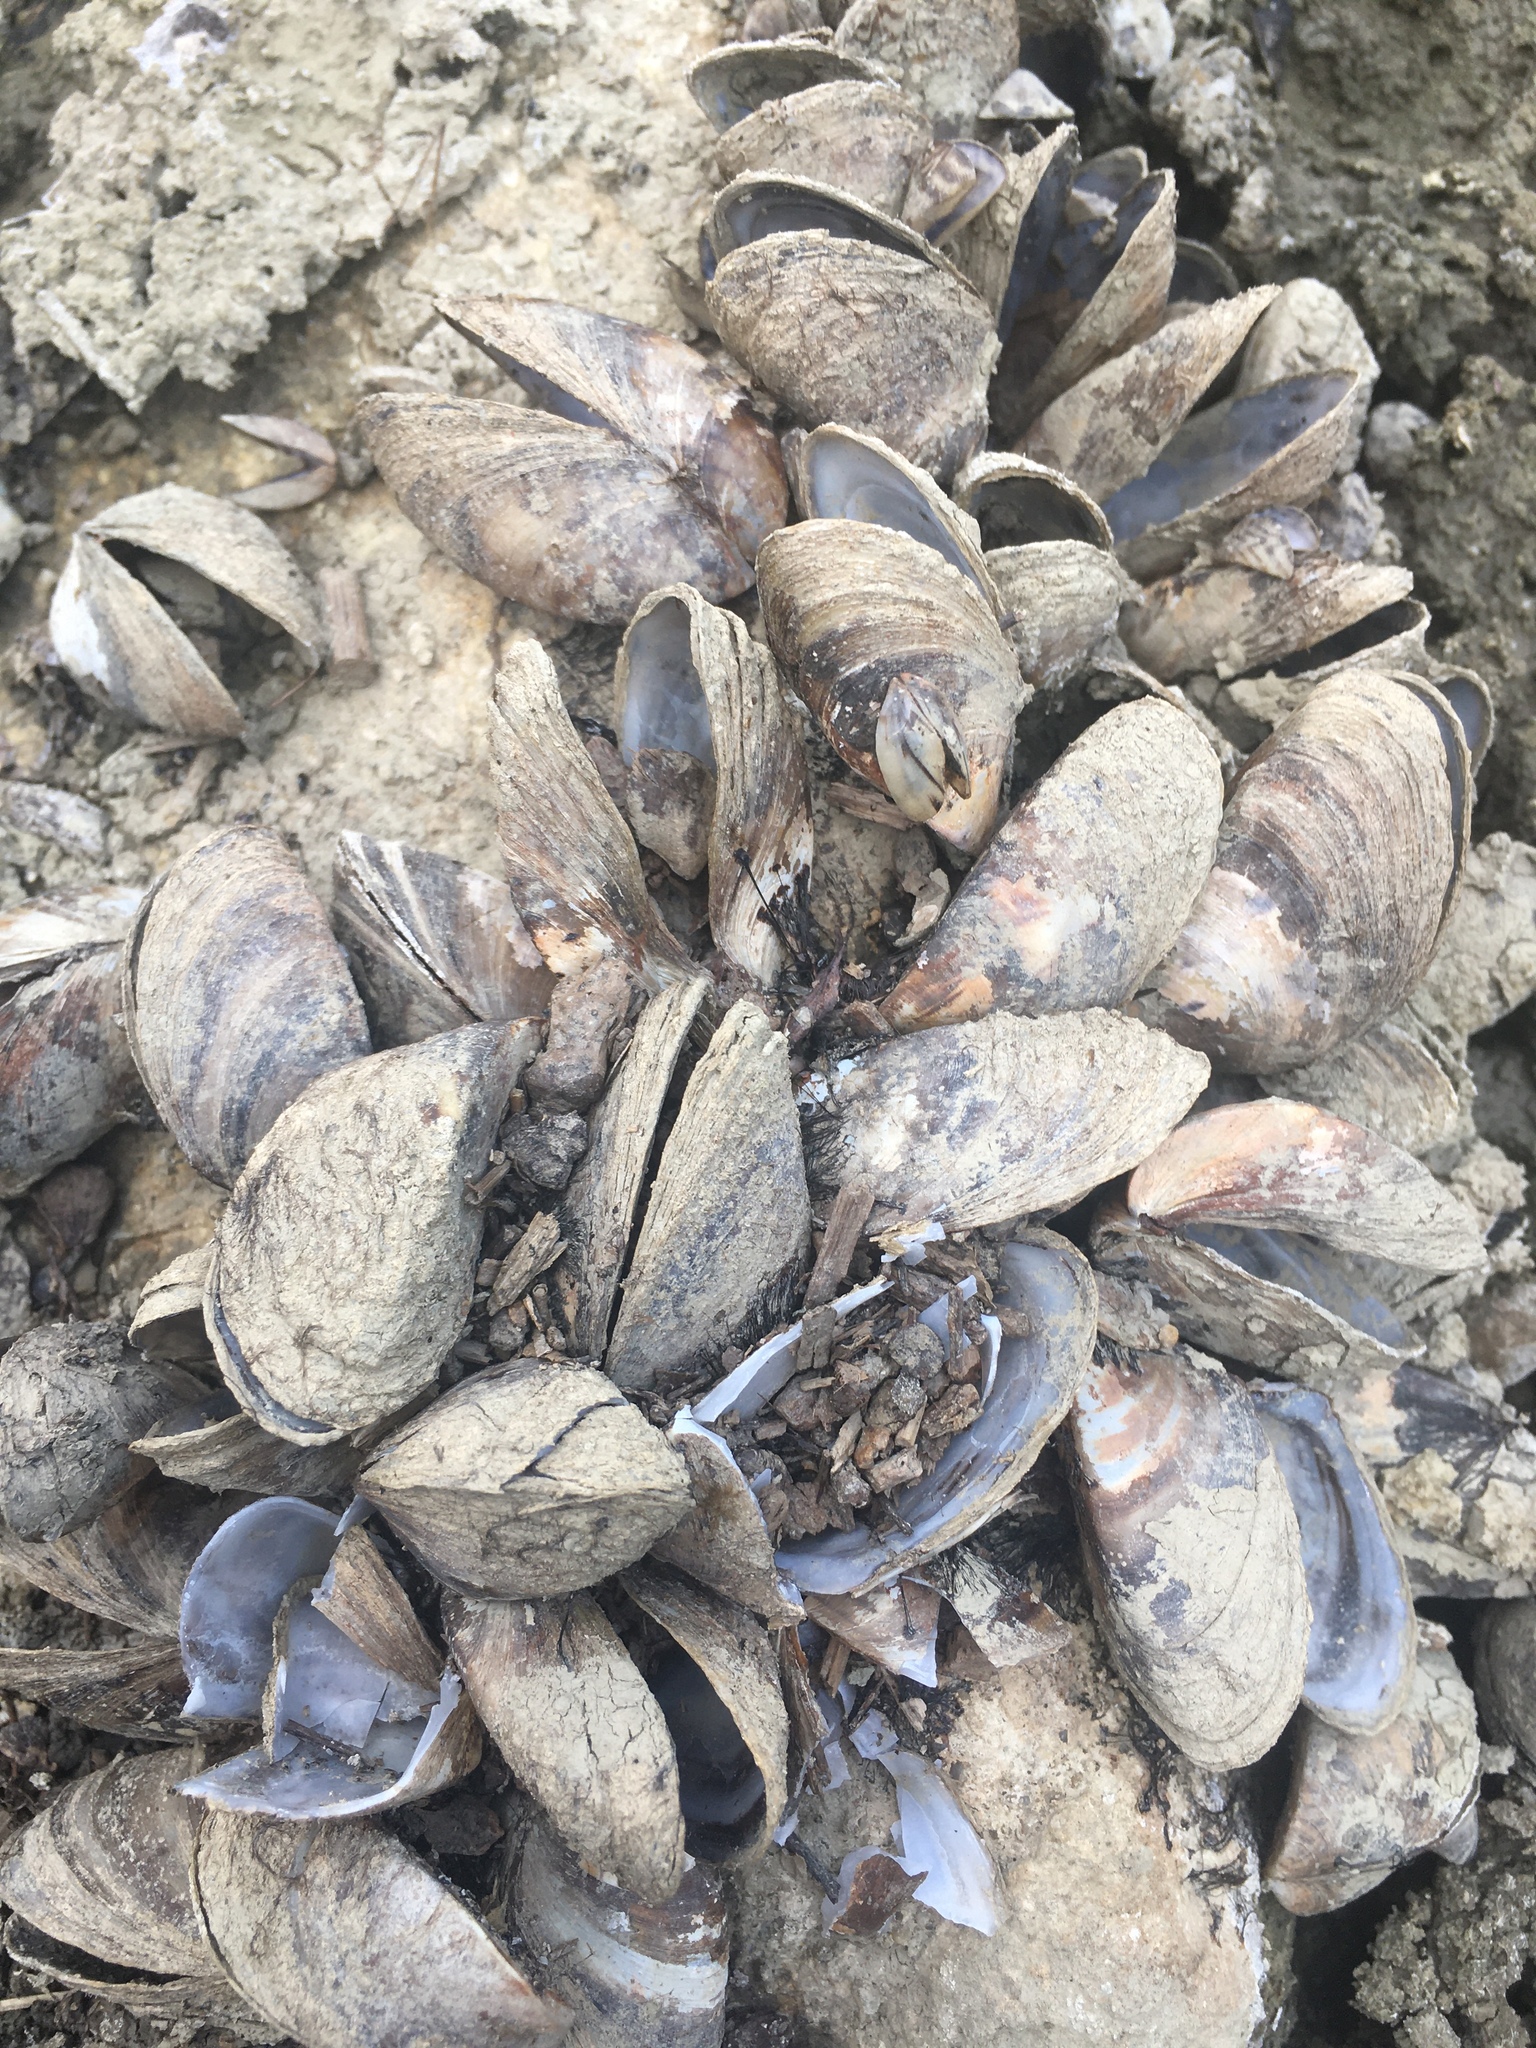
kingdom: Animalia
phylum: Mollusca
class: Bivalvia
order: Myida
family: Dreissenidae
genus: Dreissena
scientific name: Dreissena polymorpha
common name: Zebra mussel
